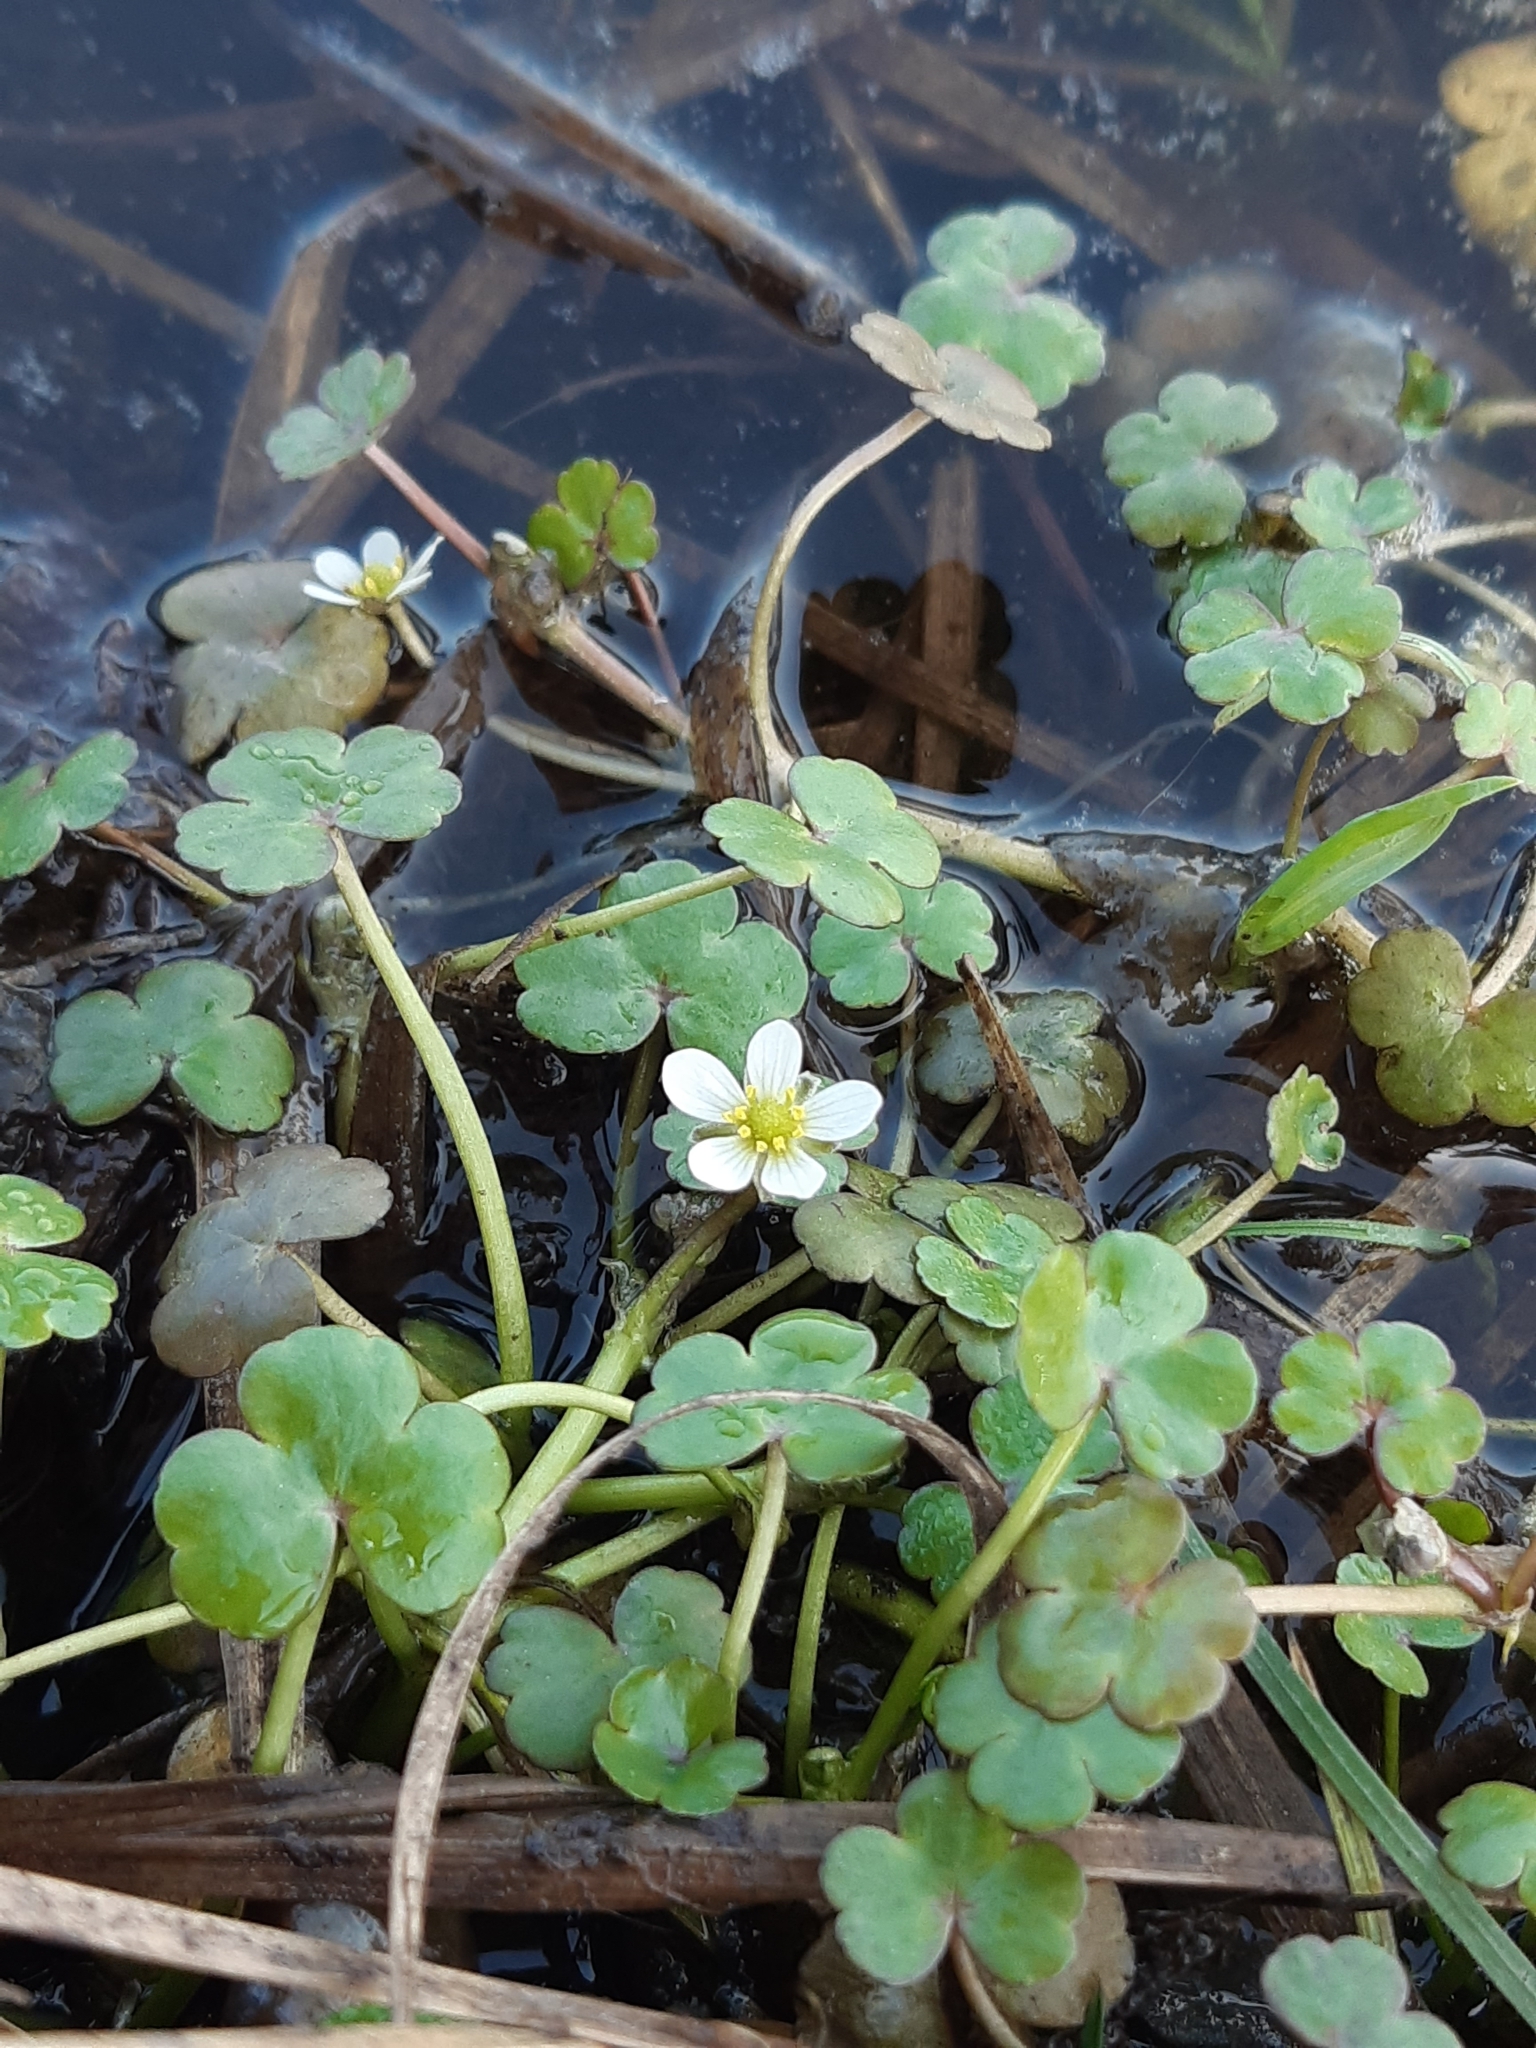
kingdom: Plantae
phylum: Tracheophyta
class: Magnoliopsida
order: Ranunculales
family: Ranunculaceae
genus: Ranunculus
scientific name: Ranunculus omiophyllus
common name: Round-leaved crowfoot
